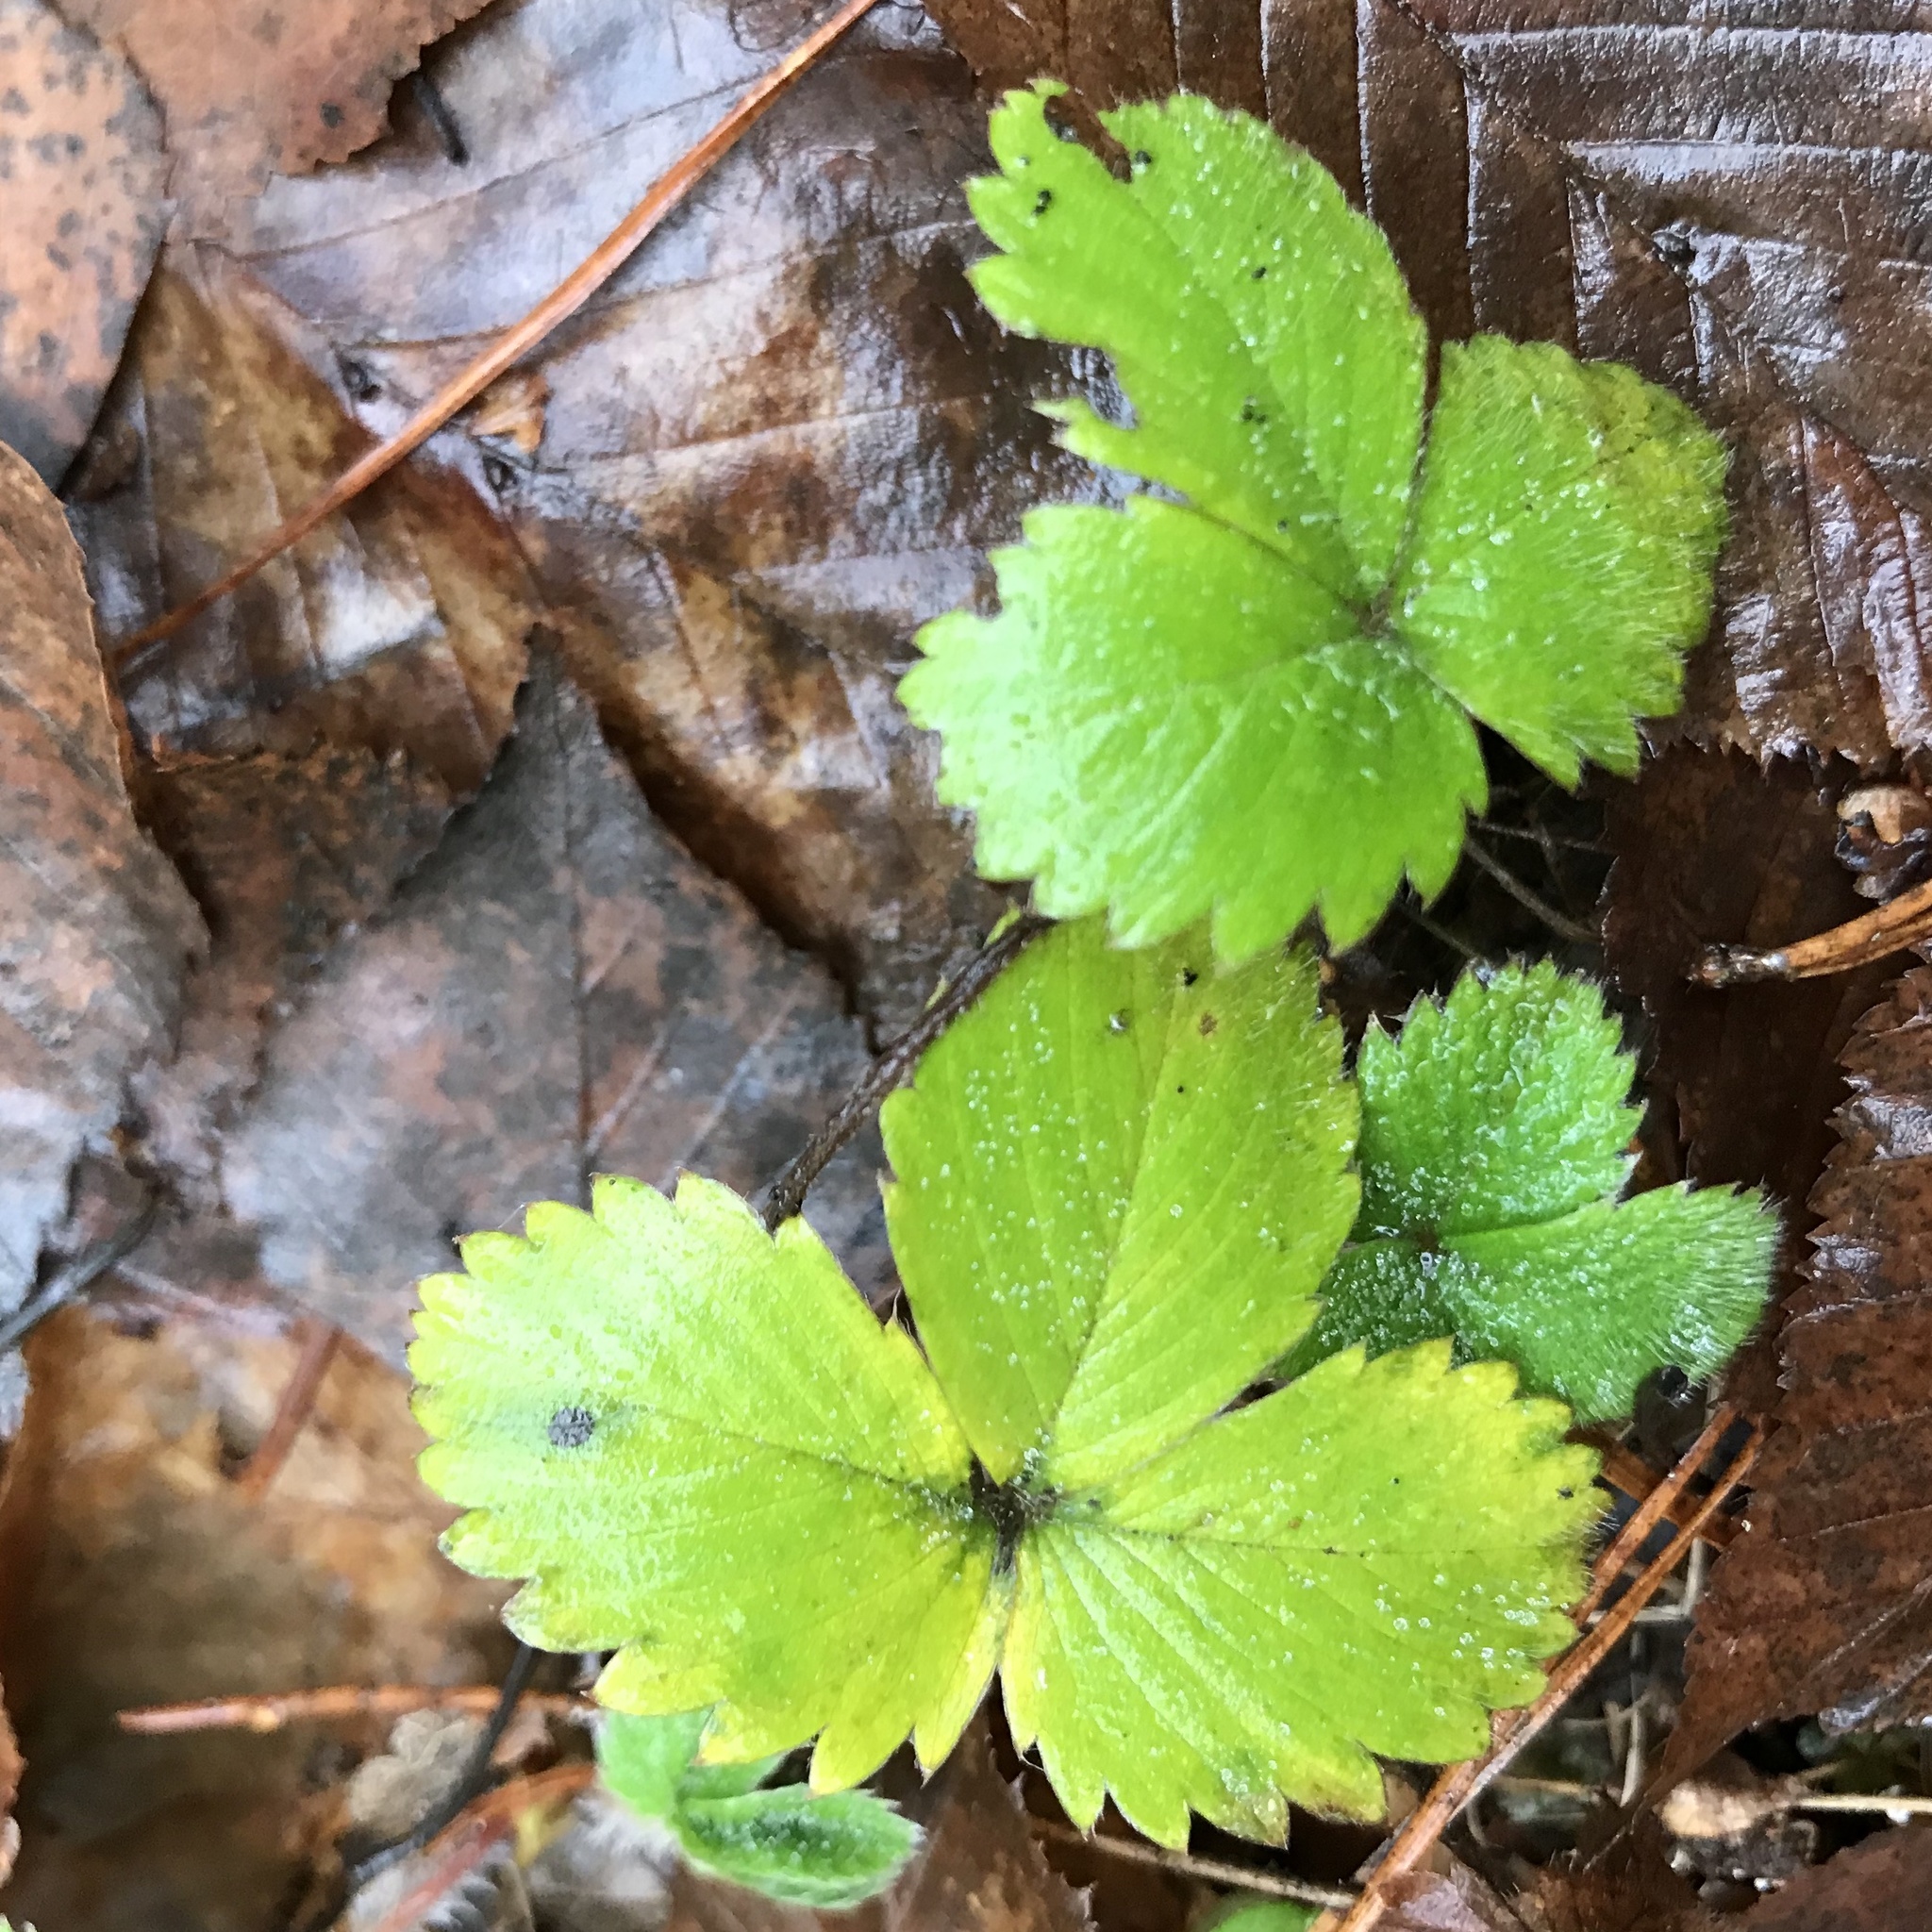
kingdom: Plantae
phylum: Tracheophyta
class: Magnoliopsida
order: Rosales
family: Rosaceae
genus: Fragaria
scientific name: Fragaria vesca
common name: Wild strawberry
